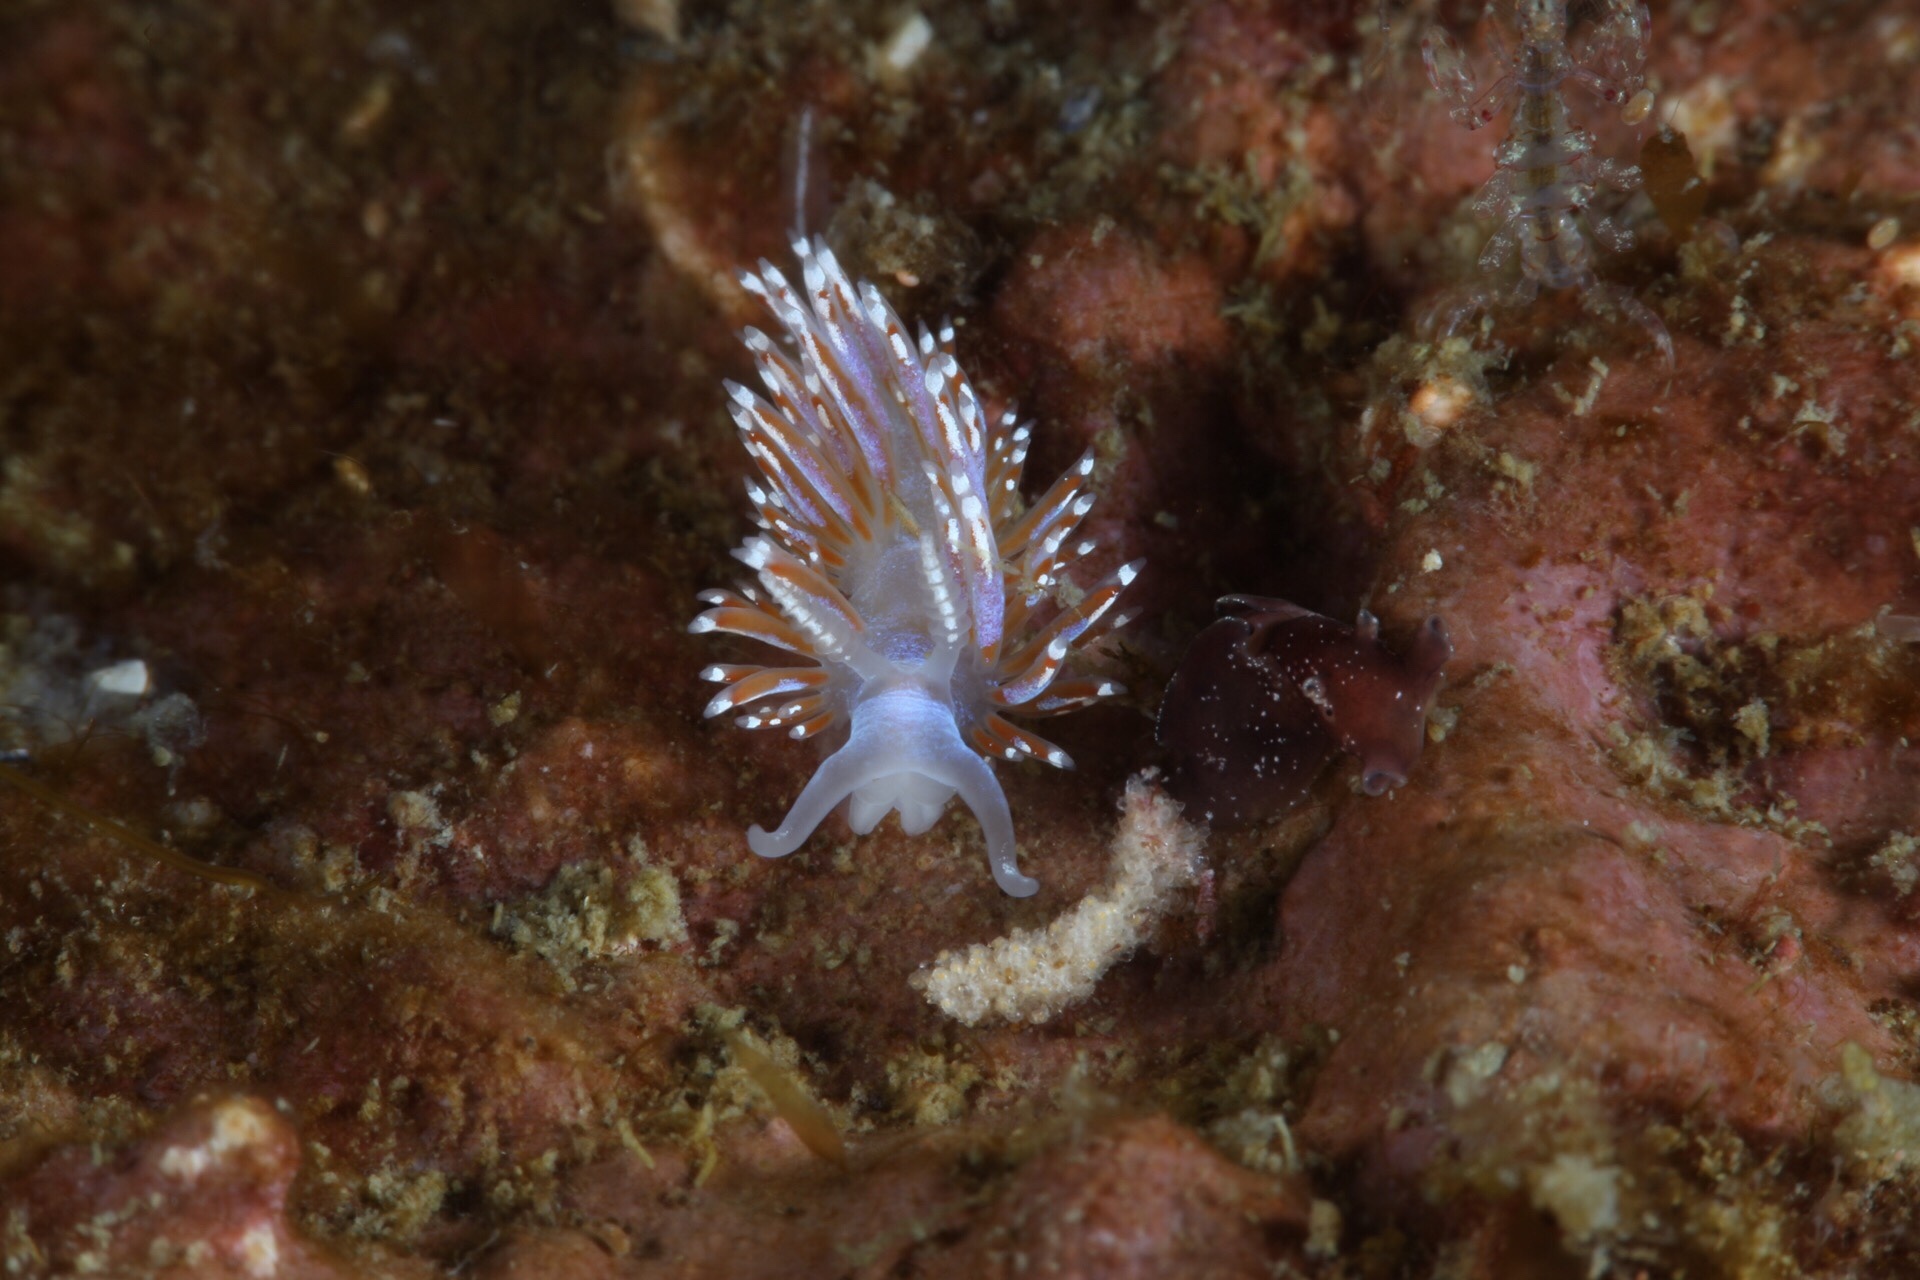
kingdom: Animalia
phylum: Mollusca
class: Gastropoda
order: Nudibranchia
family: Facelinidae
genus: Facelina
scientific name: Facelina auriculata
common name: Slender facelina
